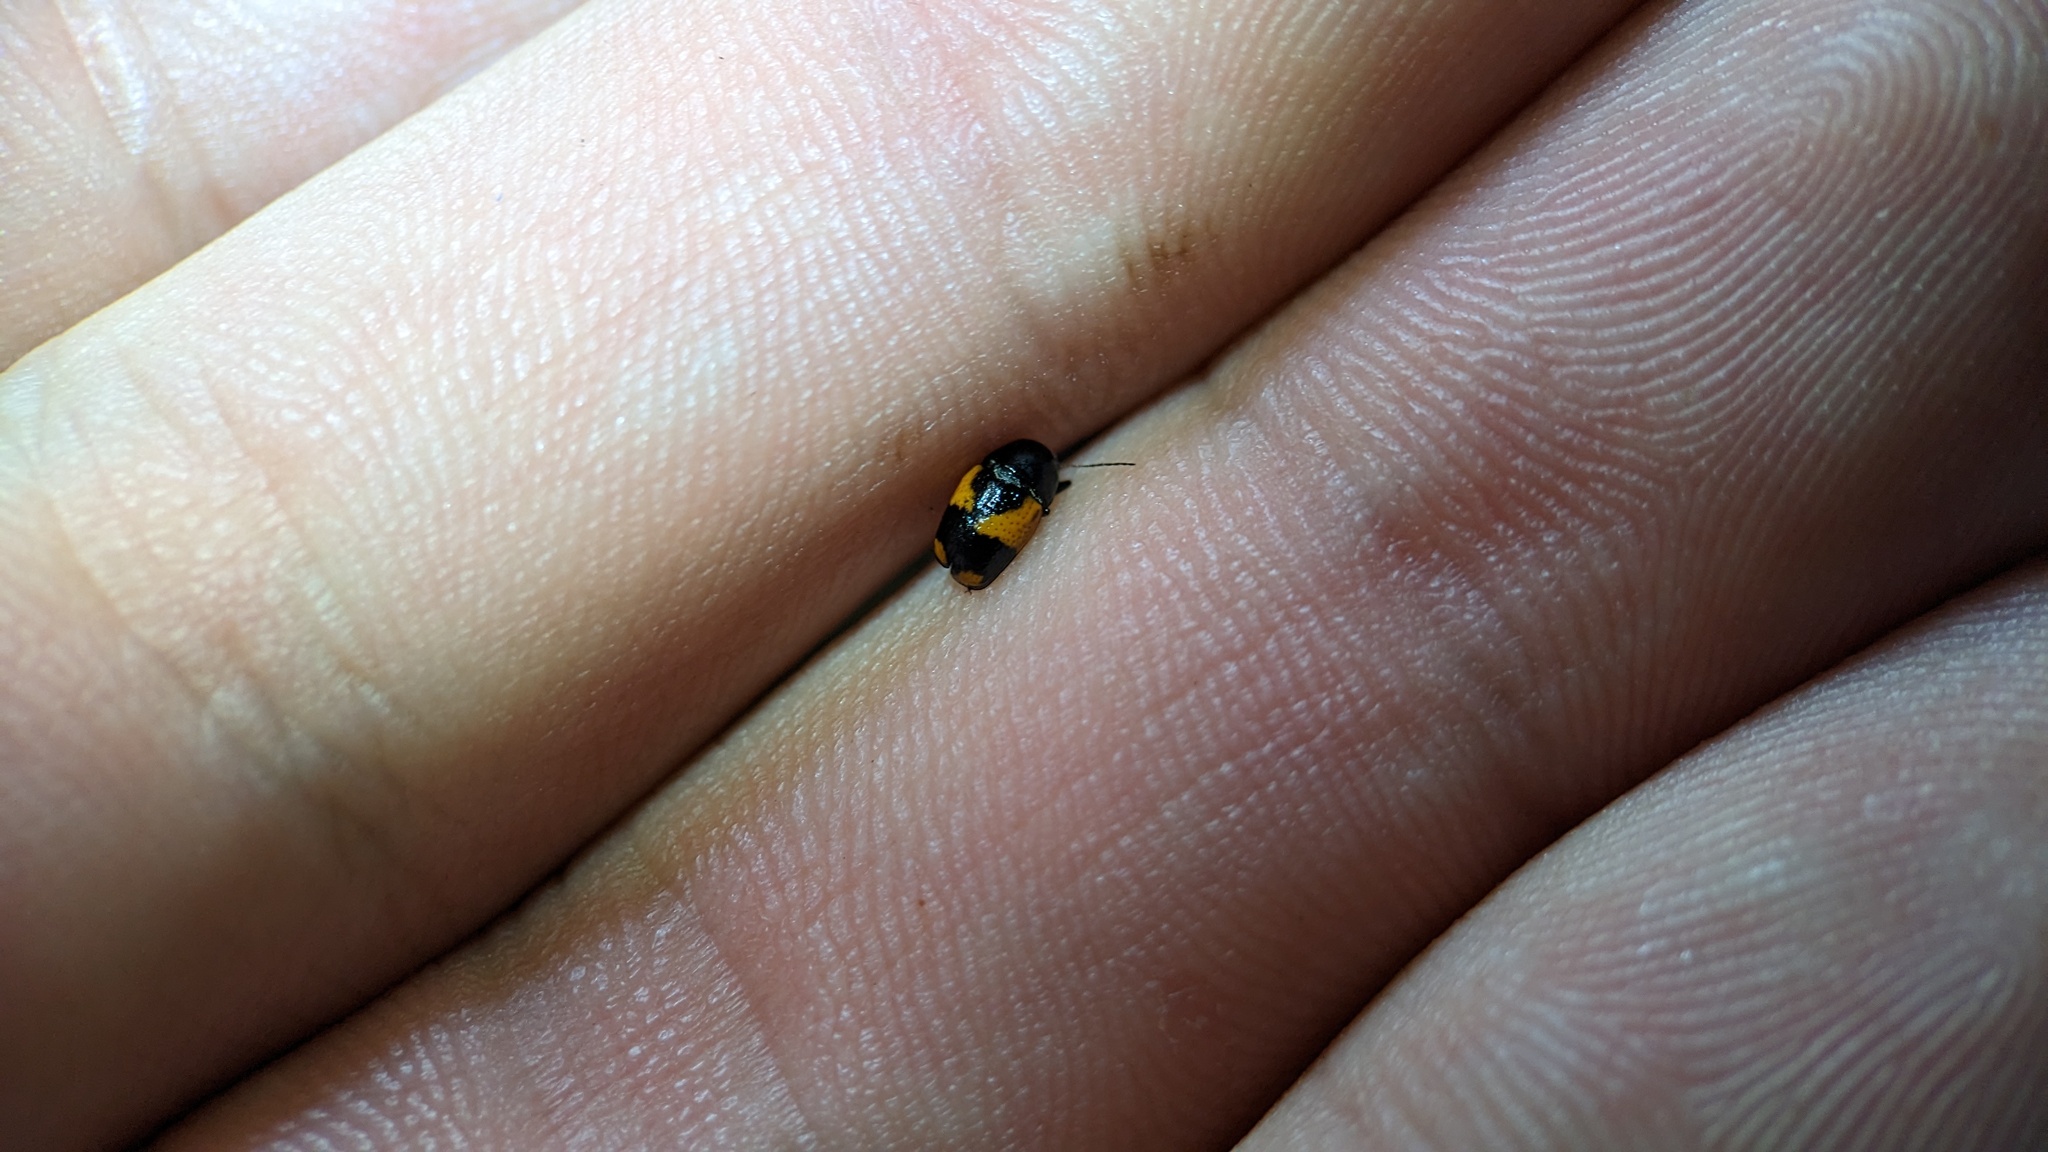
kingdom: Animalia
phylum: Arthropoda
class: Insecta
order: Coleoptera
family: Chrysomelidae
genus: Cryptocephalus
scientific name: Cryptocephalus binominis
